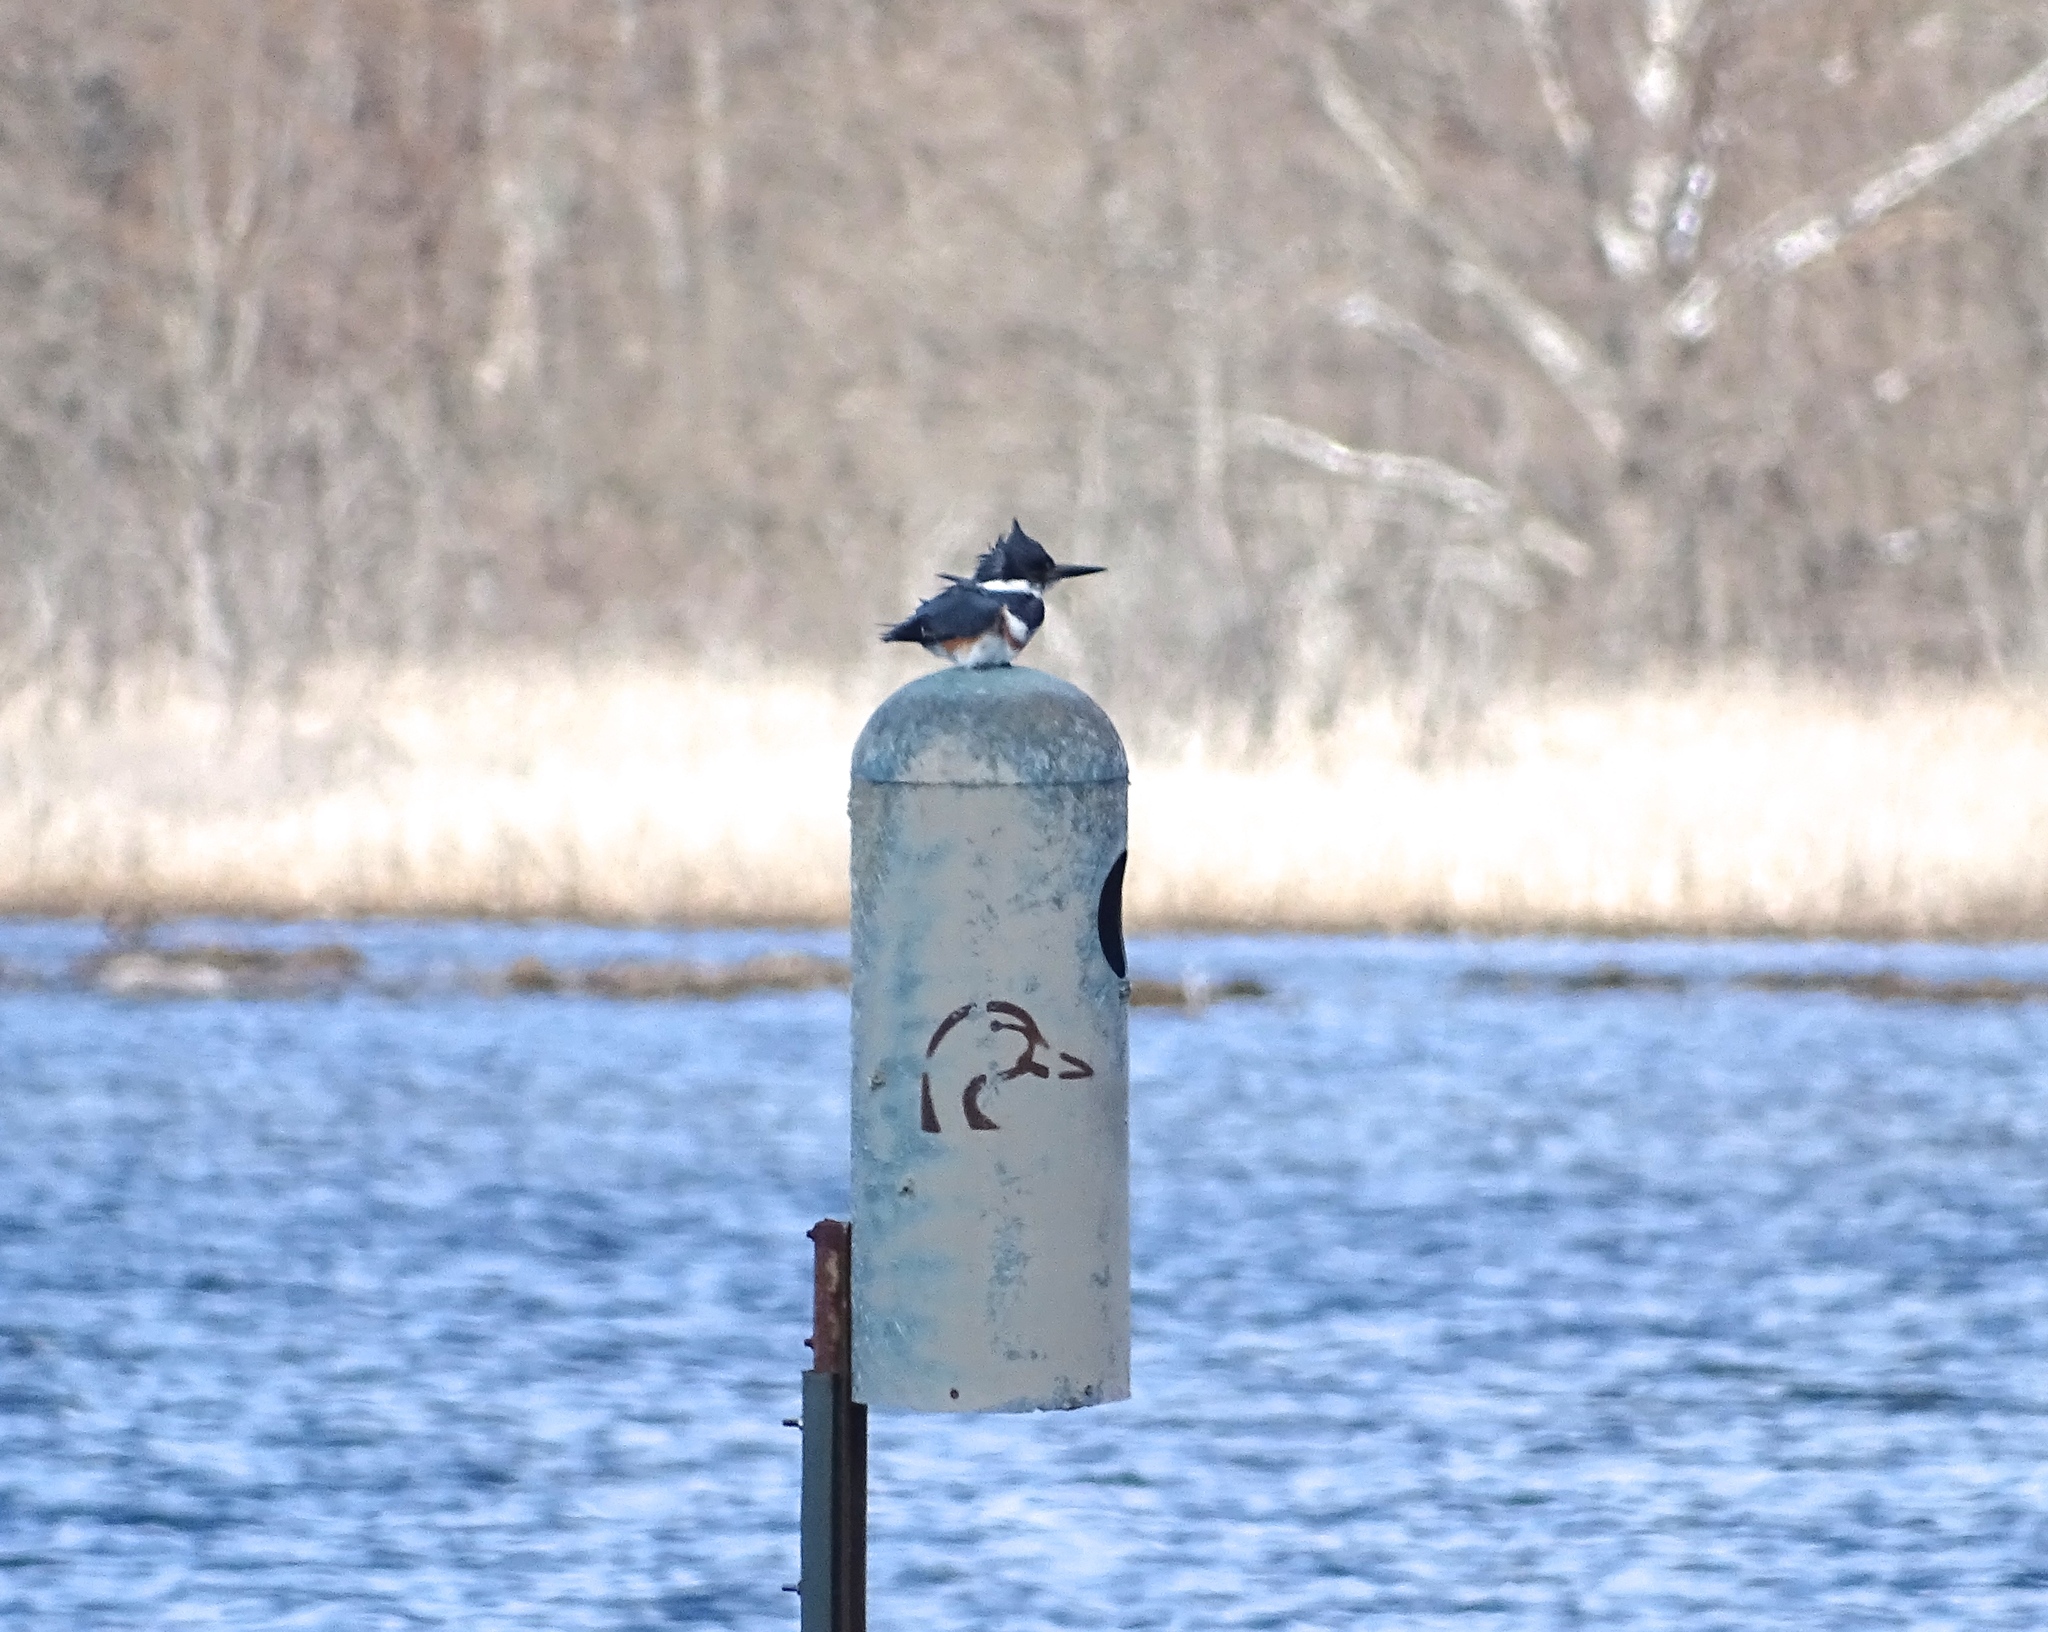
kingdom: Animalia
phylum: Chordata
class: Aves
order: Coraciiformes
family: Alcedinidae
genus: Megaceryle
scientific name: Megaceryle alcyon
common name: Belted kingfisher
